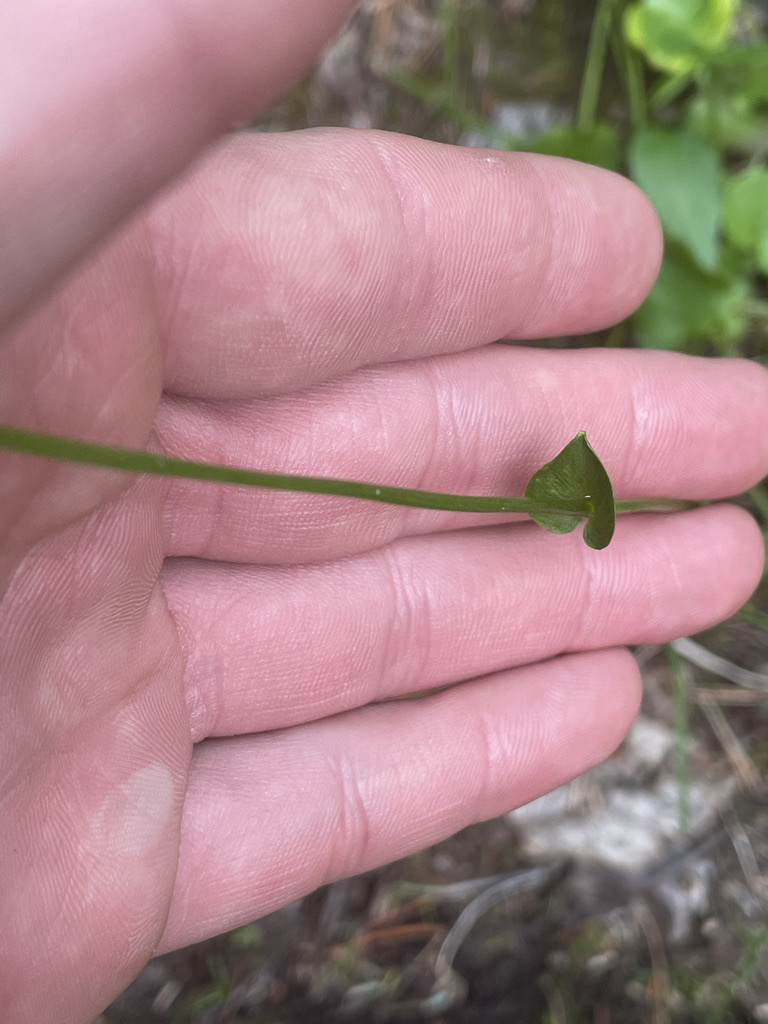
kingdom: Plantae
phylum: Tracheophyta
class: Magnoliopsida
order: Celastrales
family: Parnassiaceae
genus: Parnassia
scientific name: Parnassia fimbriata
